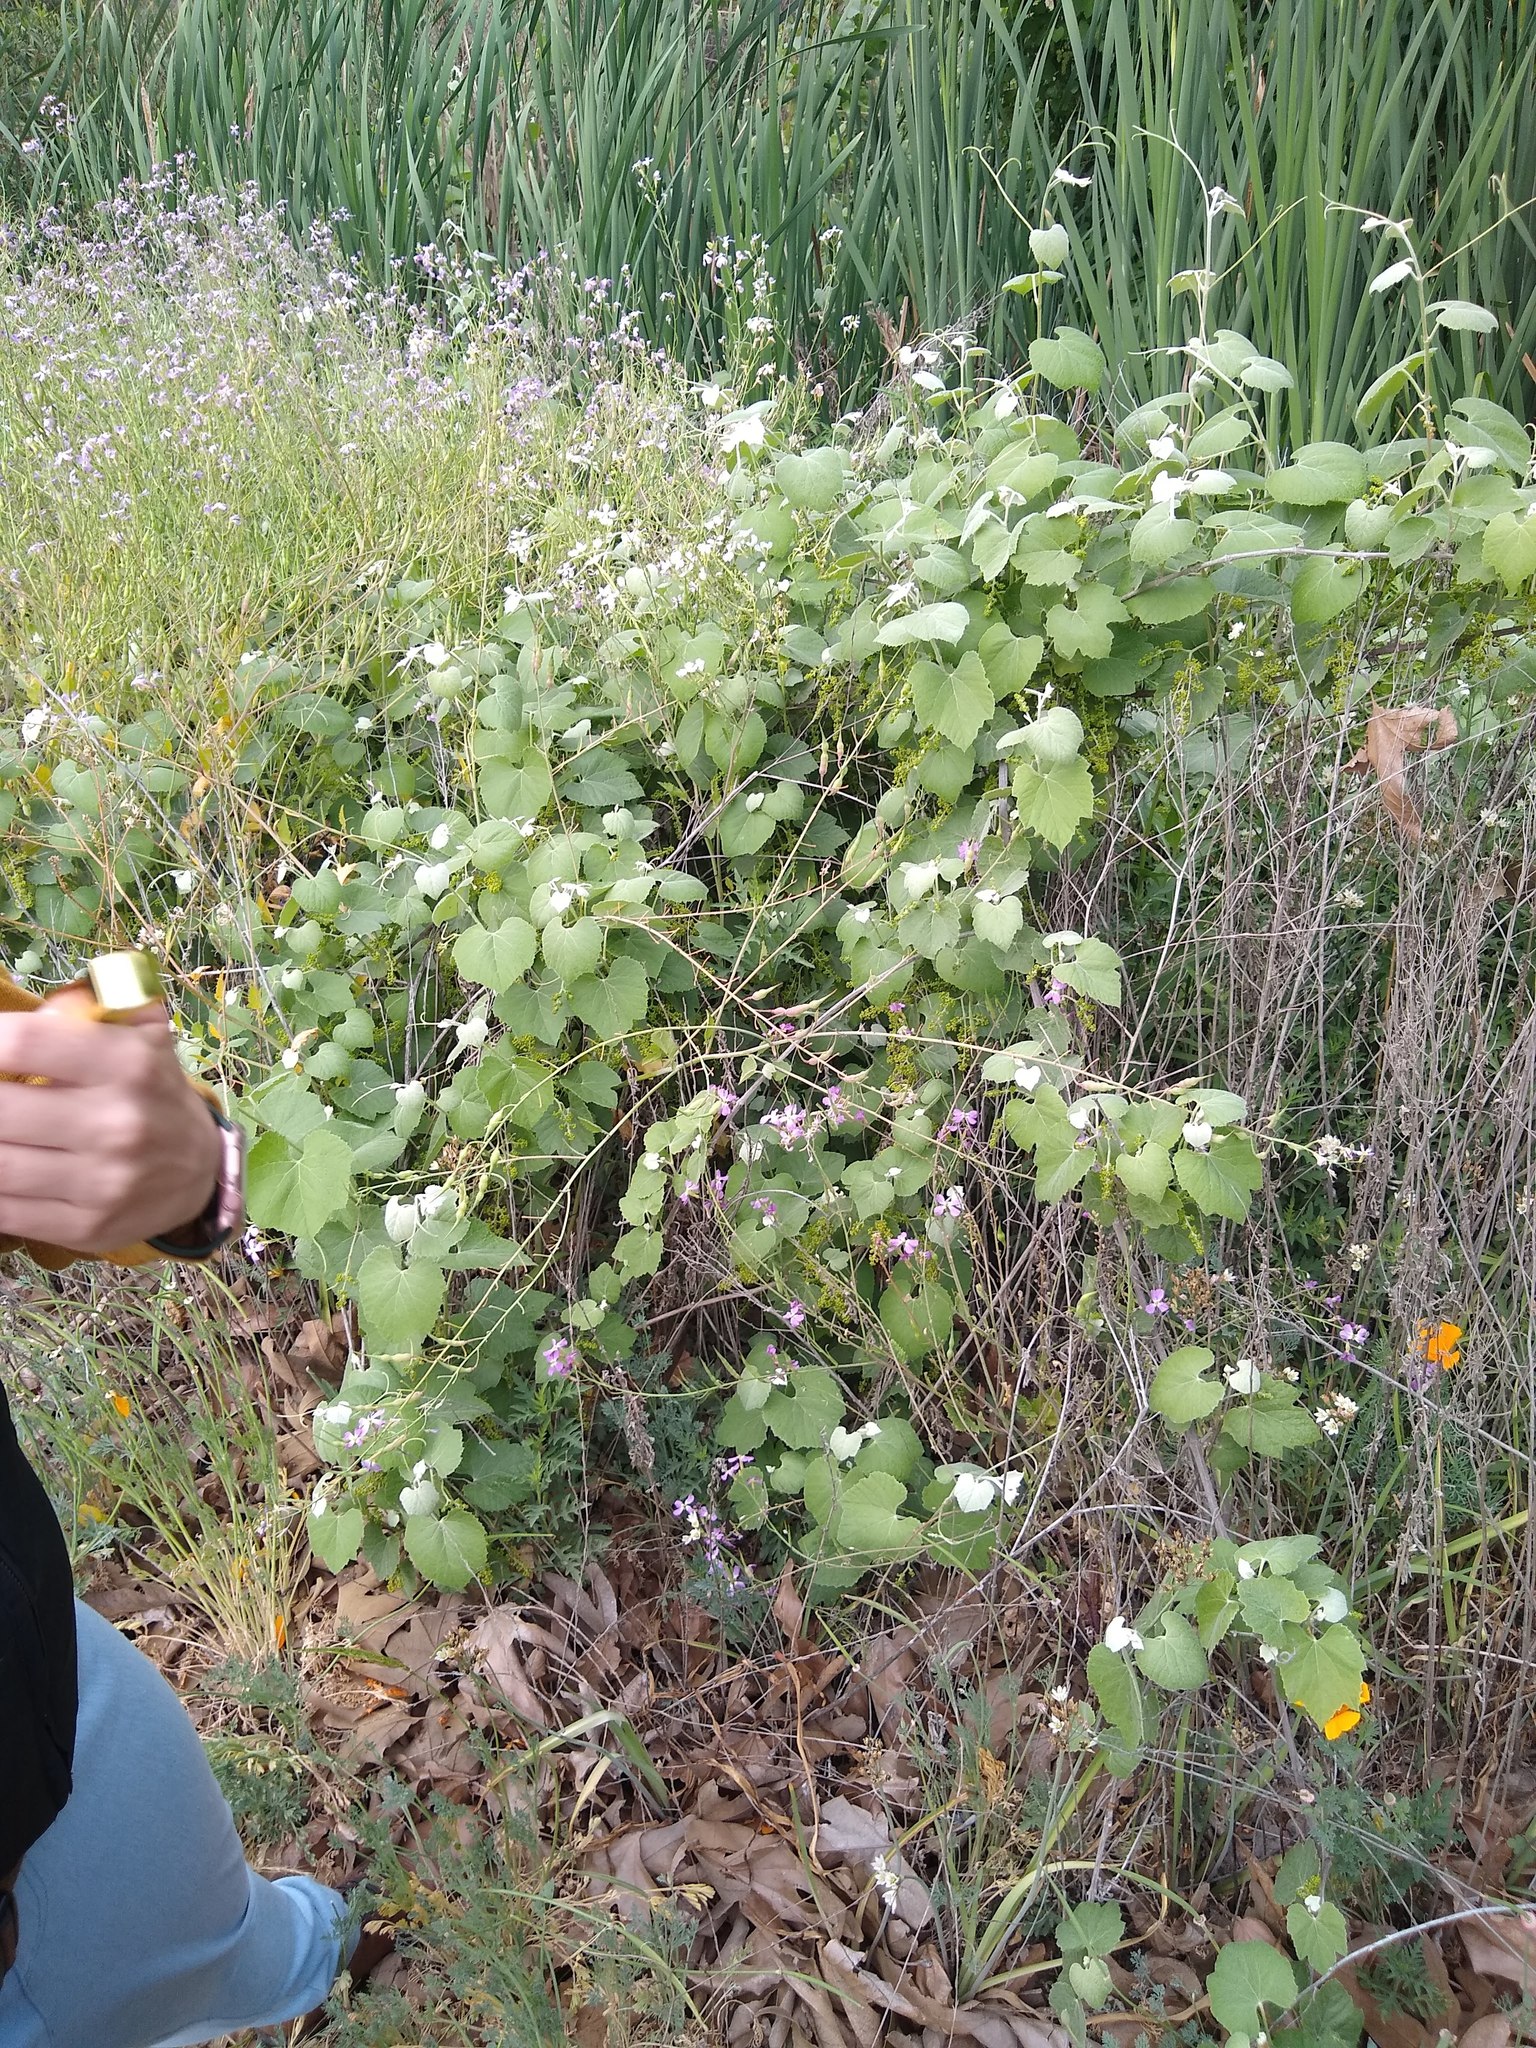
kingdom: Plantae
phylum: Tracheophyta
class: Magnoliopsida
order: Vitales
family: Vitaceae
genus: Vitis
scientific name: Vitis girdiana
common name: Desert wild grape
